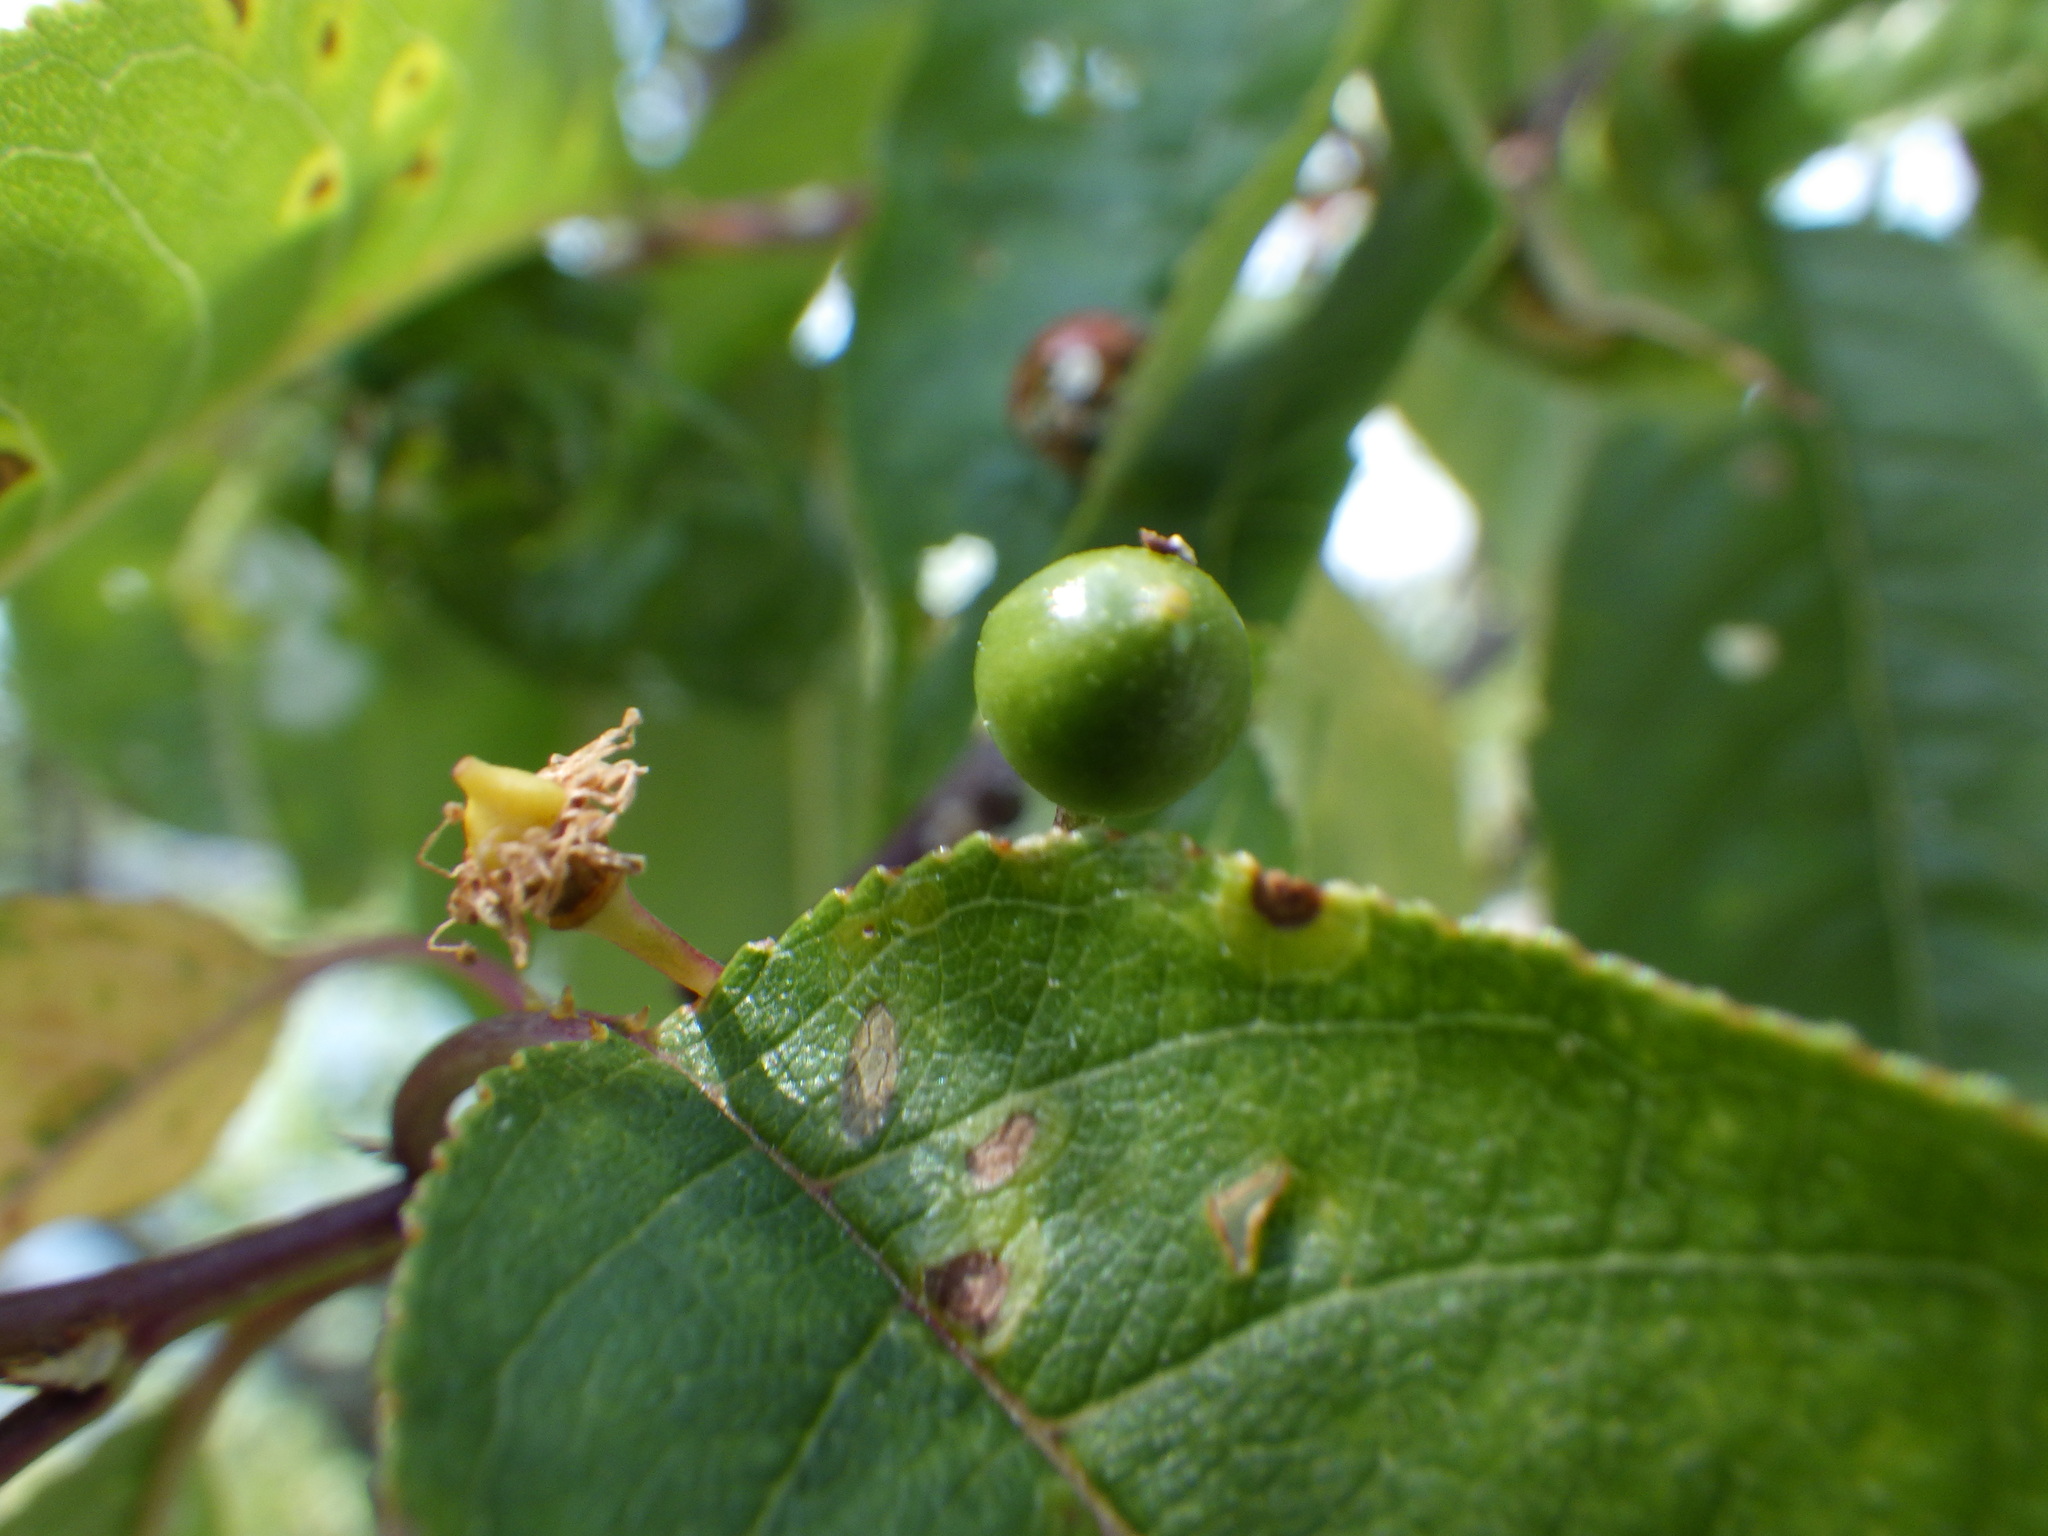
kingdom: Plantae
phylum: Tracheophyta
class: Magnoliopsida
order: Rosales
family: Rosaceae
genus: Prunus
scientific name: Prunus pensylvanica
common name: Pin cherry
